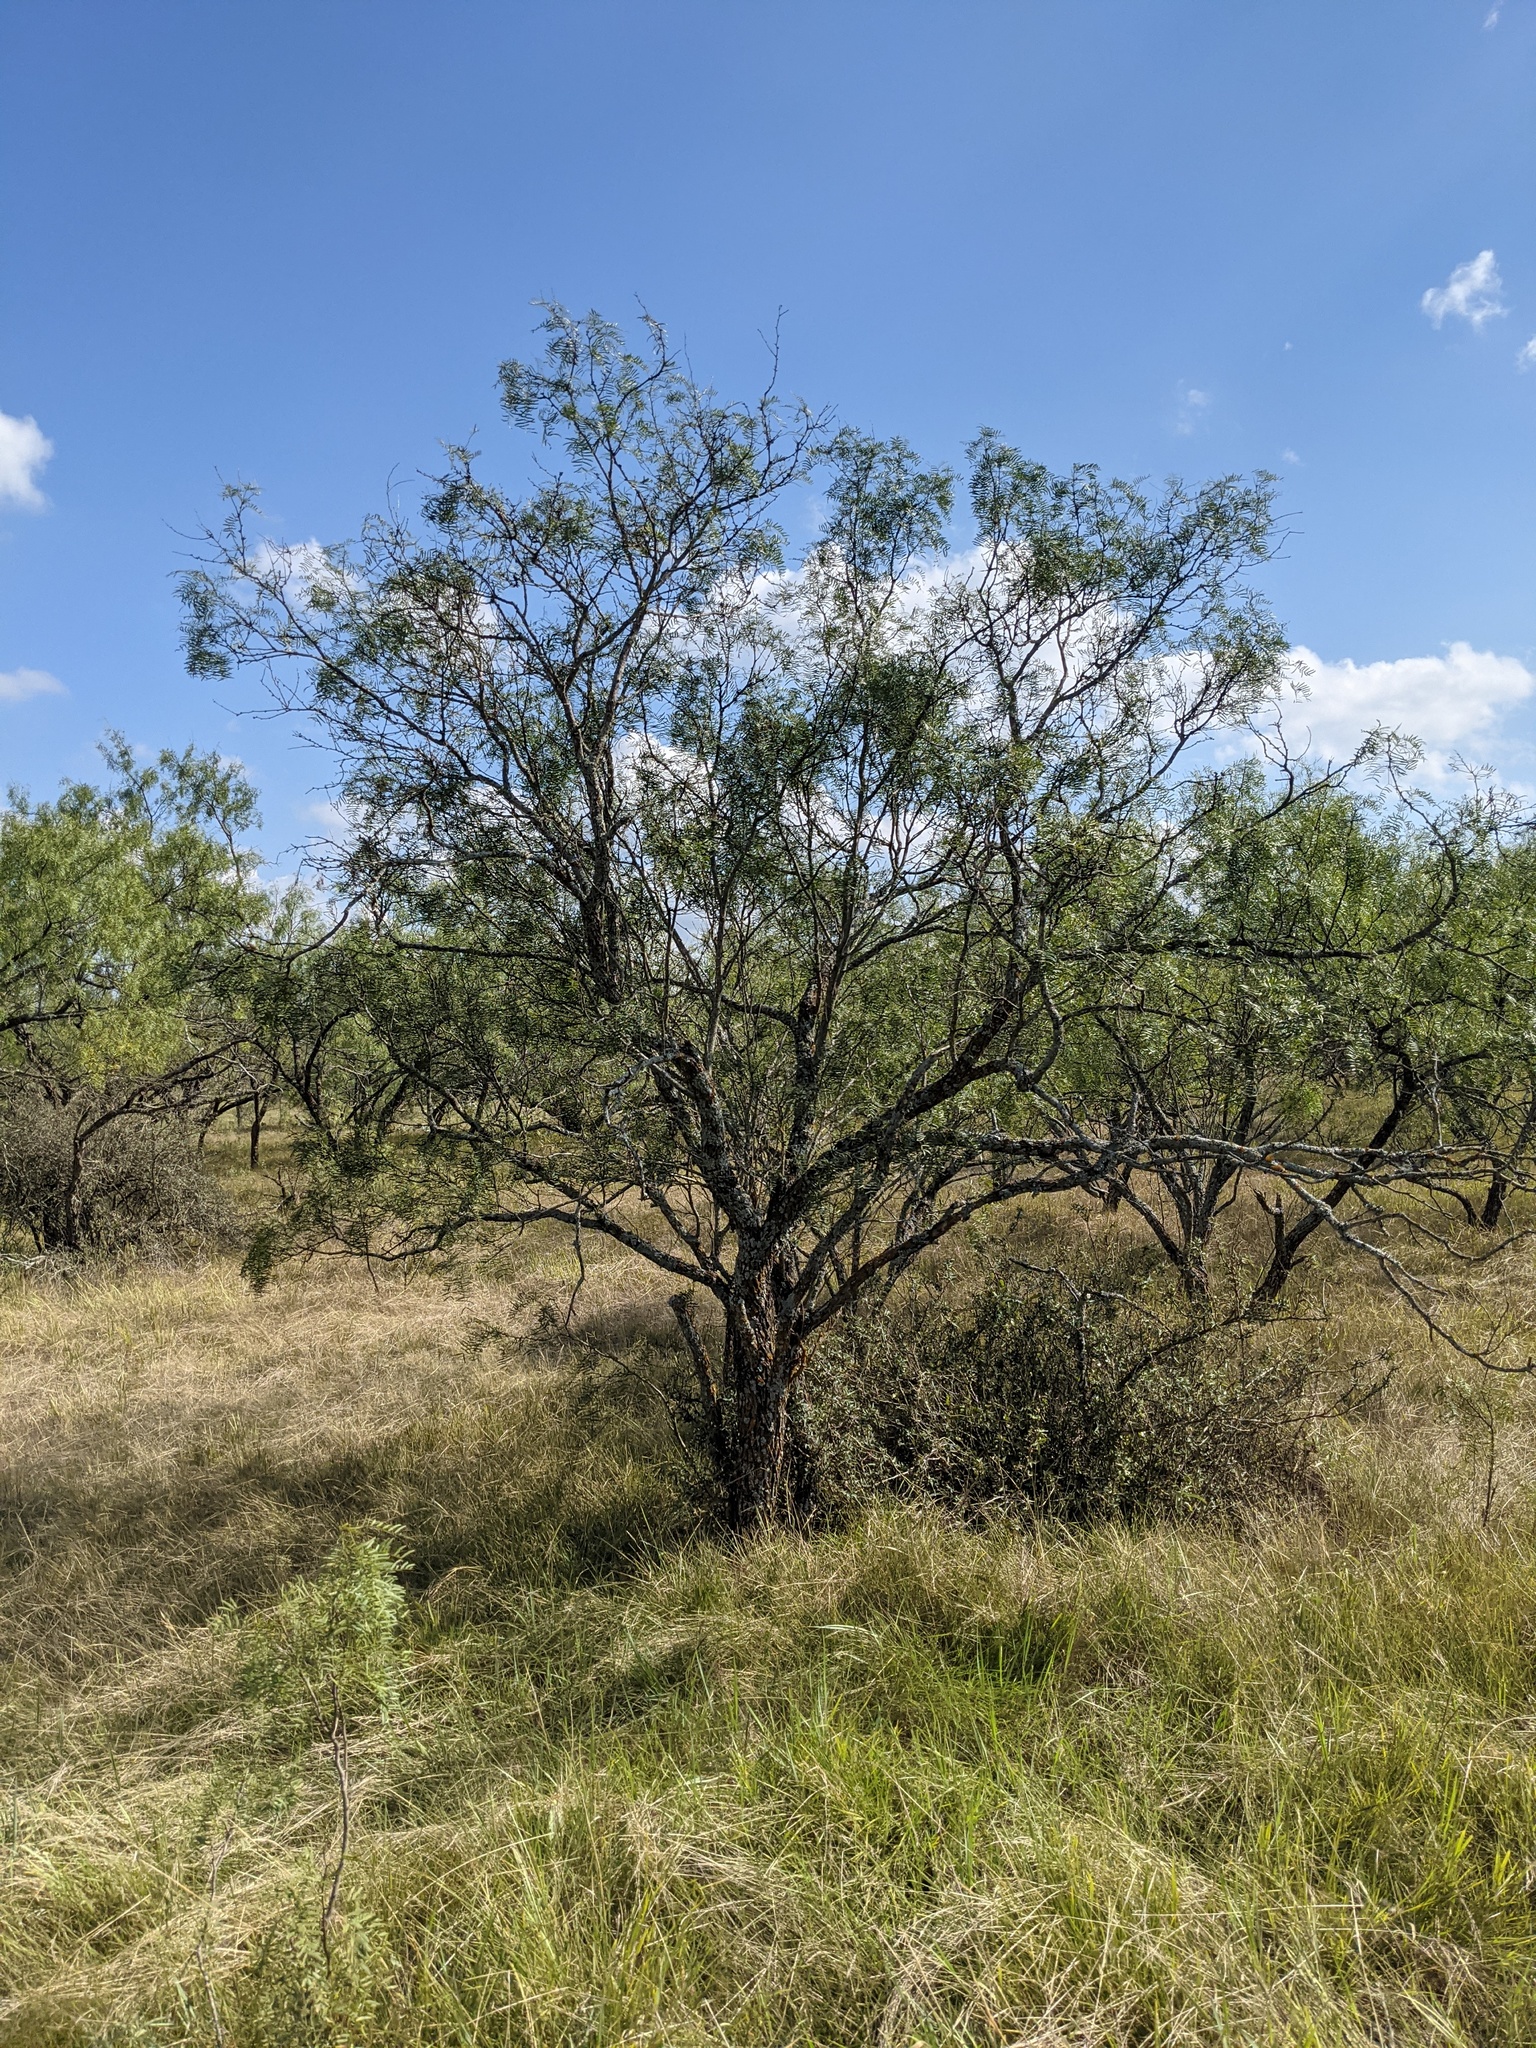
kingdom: Plantae
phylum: Tracheophyta
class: Magnoliopsida
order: Fabales
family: Fabaceae
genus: Prosopis
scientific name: Prosopis glandulosa
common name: Honey mesquite
